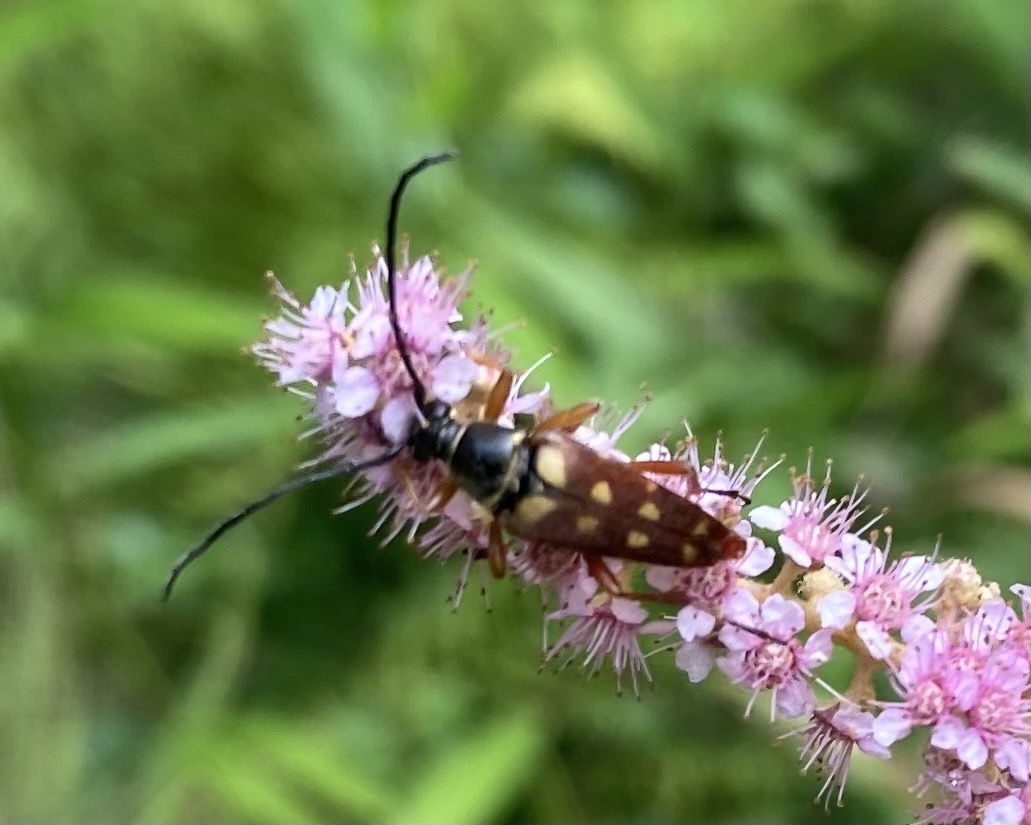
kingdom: Animalia
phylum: Arthropoda
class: Insecta
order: Coleoptera
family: Cerambycidae
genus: Typocerus
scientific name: Typocerus velutinus
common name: Banded longhorn beetle
